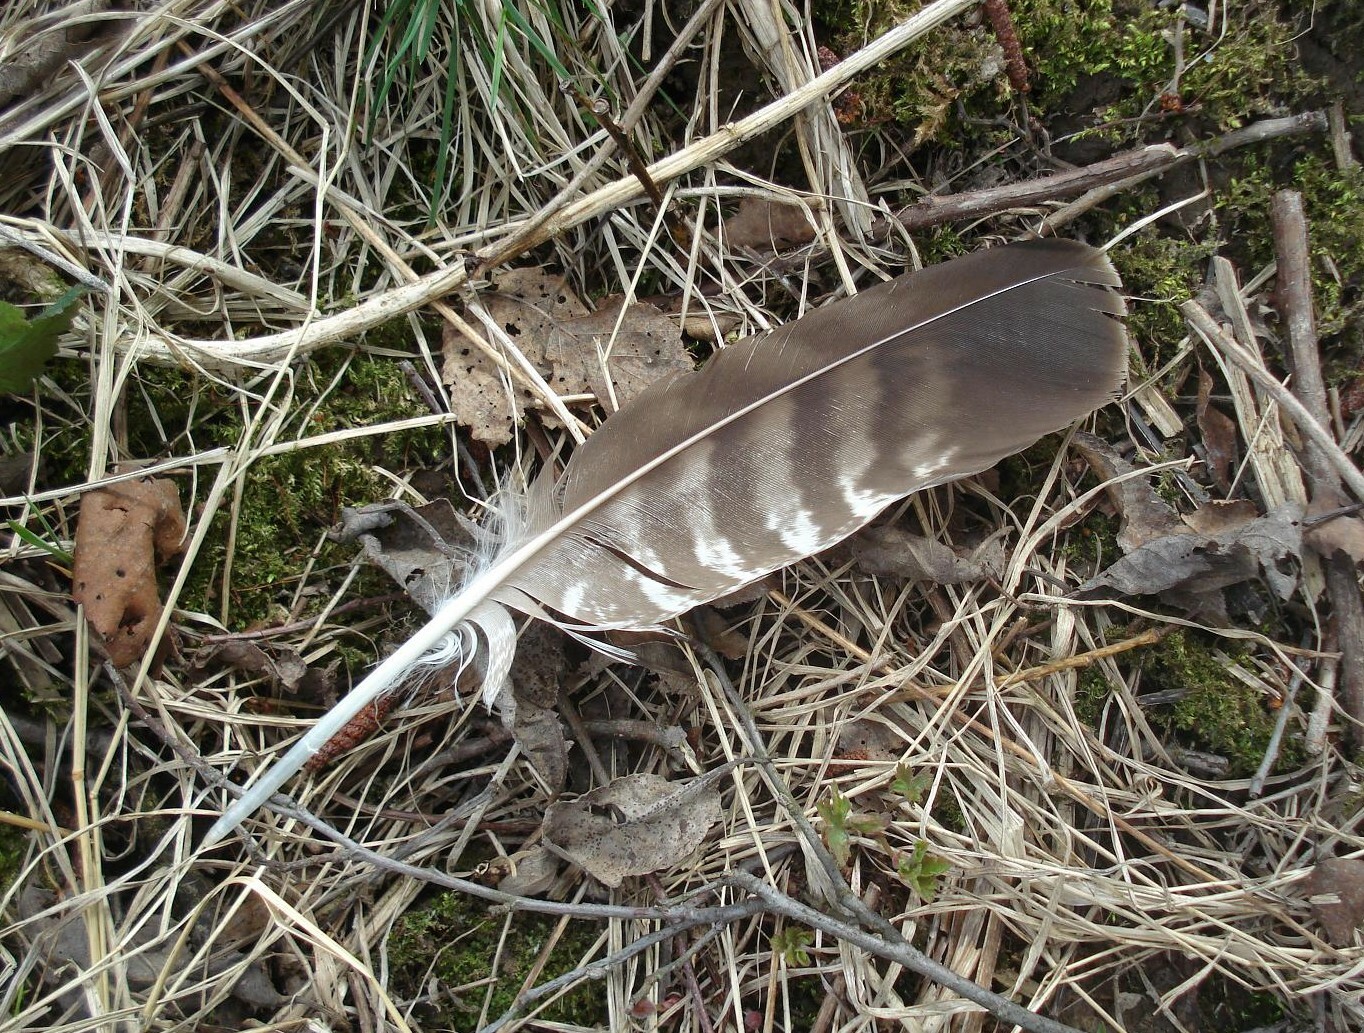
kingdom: Animalia
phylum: Chordata
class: Aves
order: Accipitriformes
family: Accipitridae
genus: Buteo
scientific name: Buteo buteo
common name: Common buzzard
